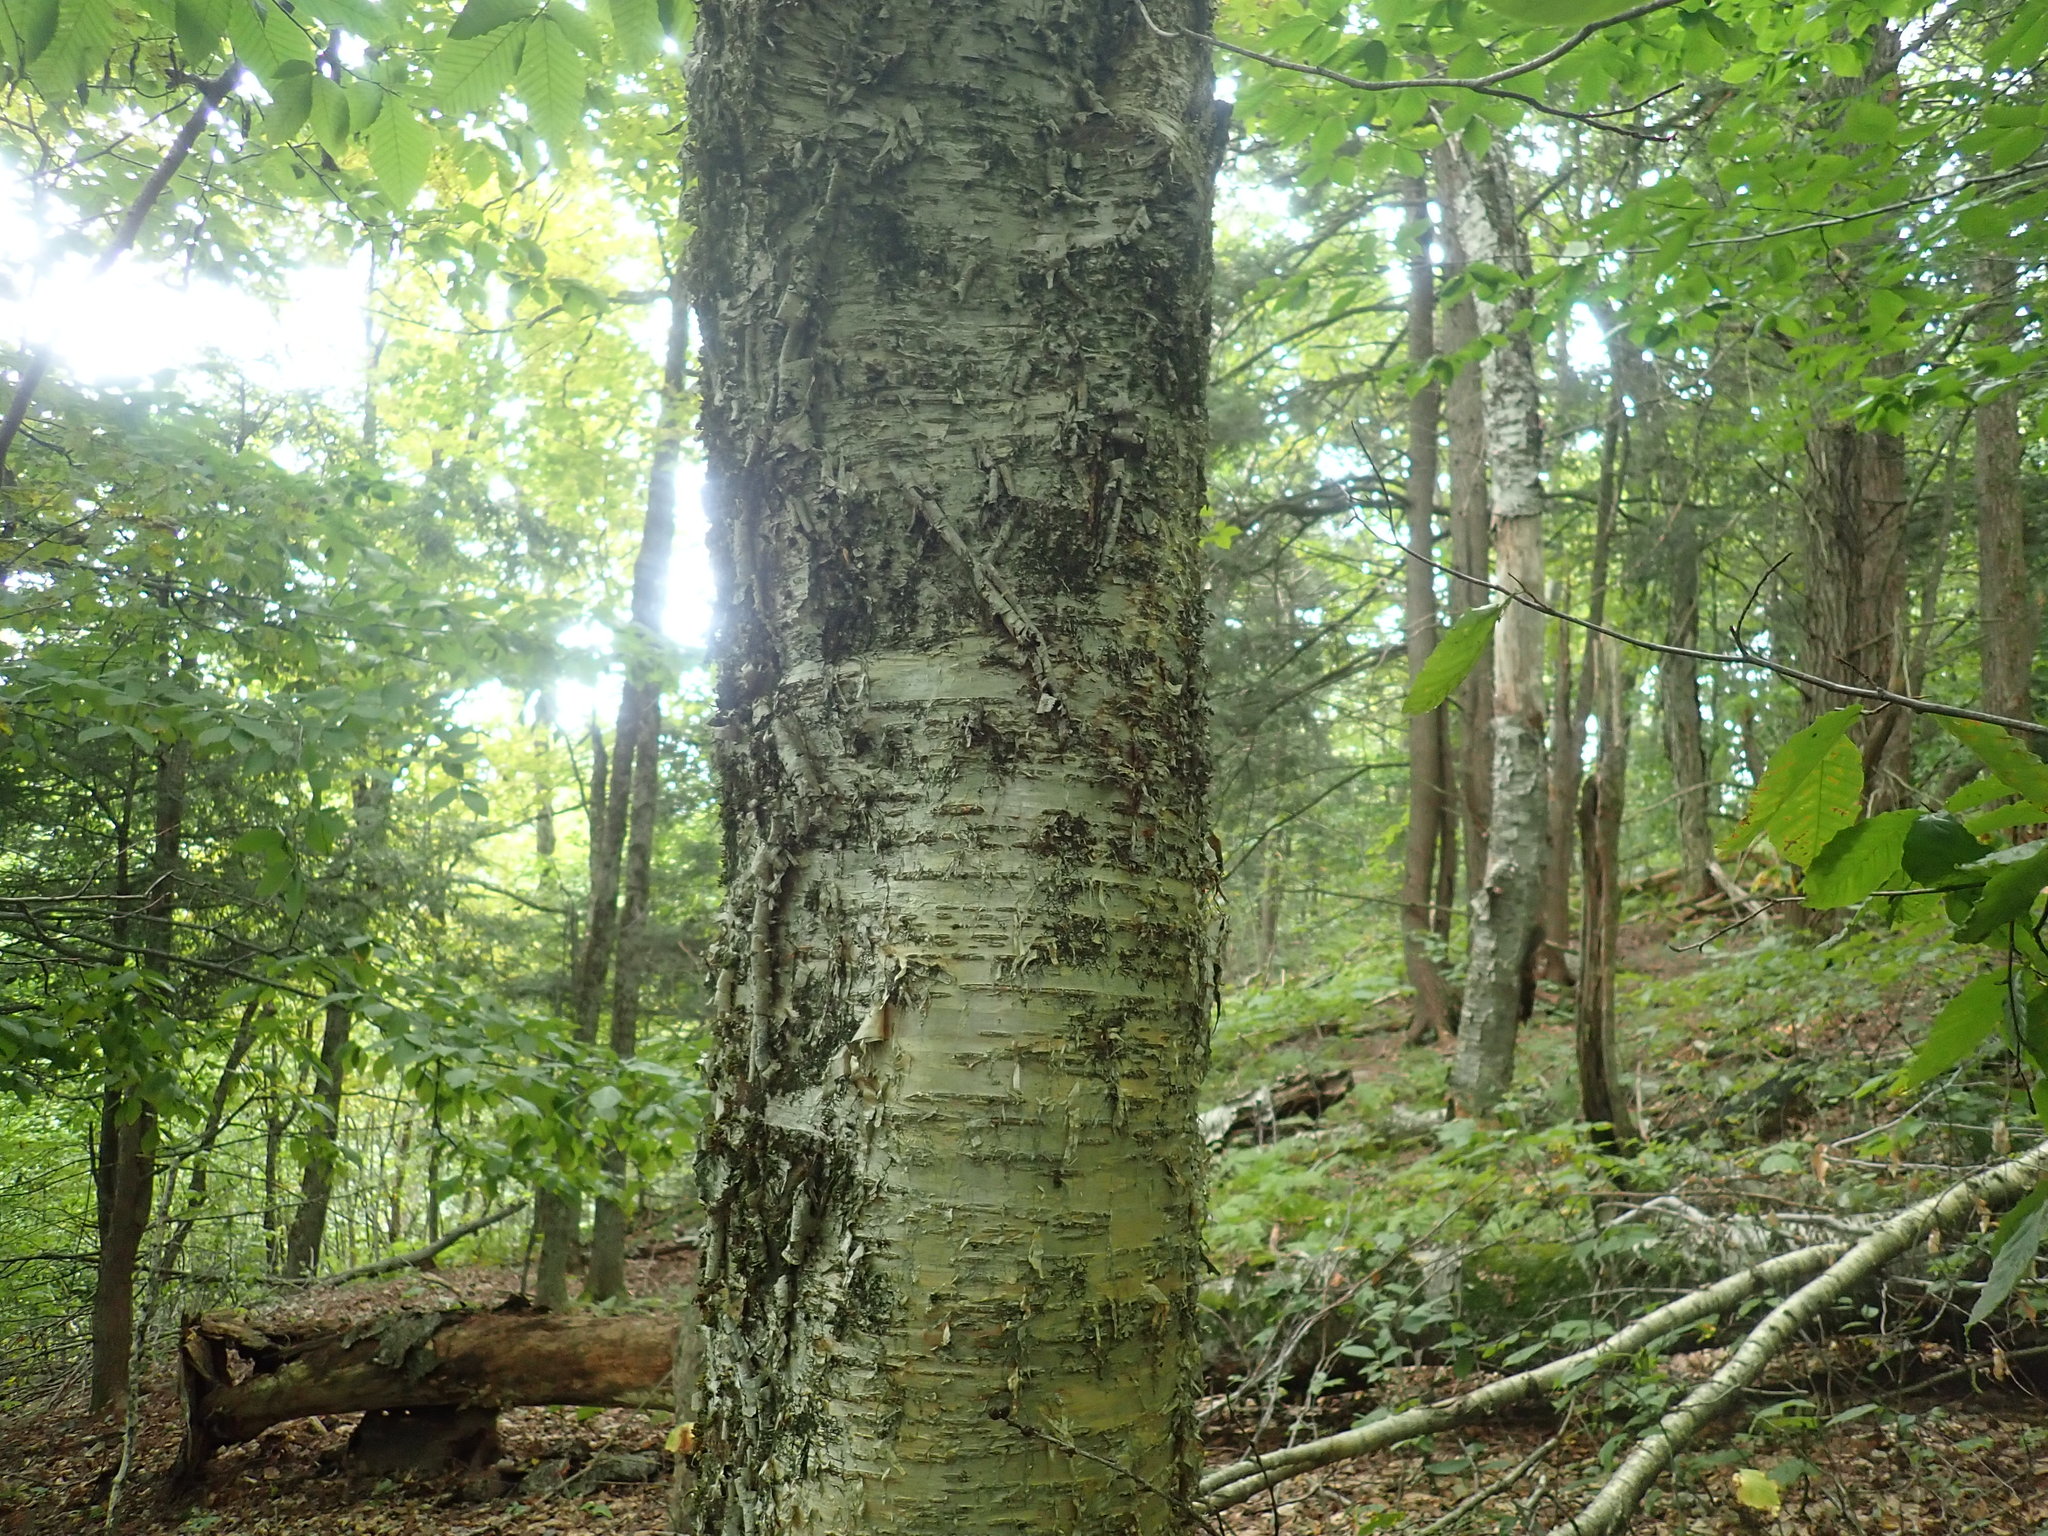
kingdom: Plantae
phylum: Tracheophyta
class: Magnoliopsida
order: Fagales
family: Betulaceae
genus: Betula
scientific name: Betula alleghaniensis
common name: Yellow birch
